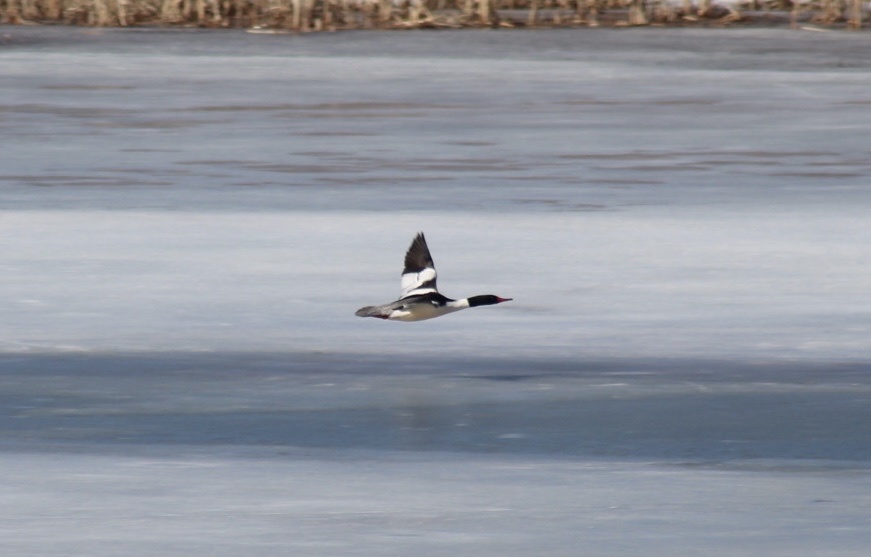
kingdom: Animalia
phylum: Chordata
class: Aves
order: Anseriformes
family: Anatidae
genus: Mergus
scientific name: Mergus merganser
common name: Common merganser
